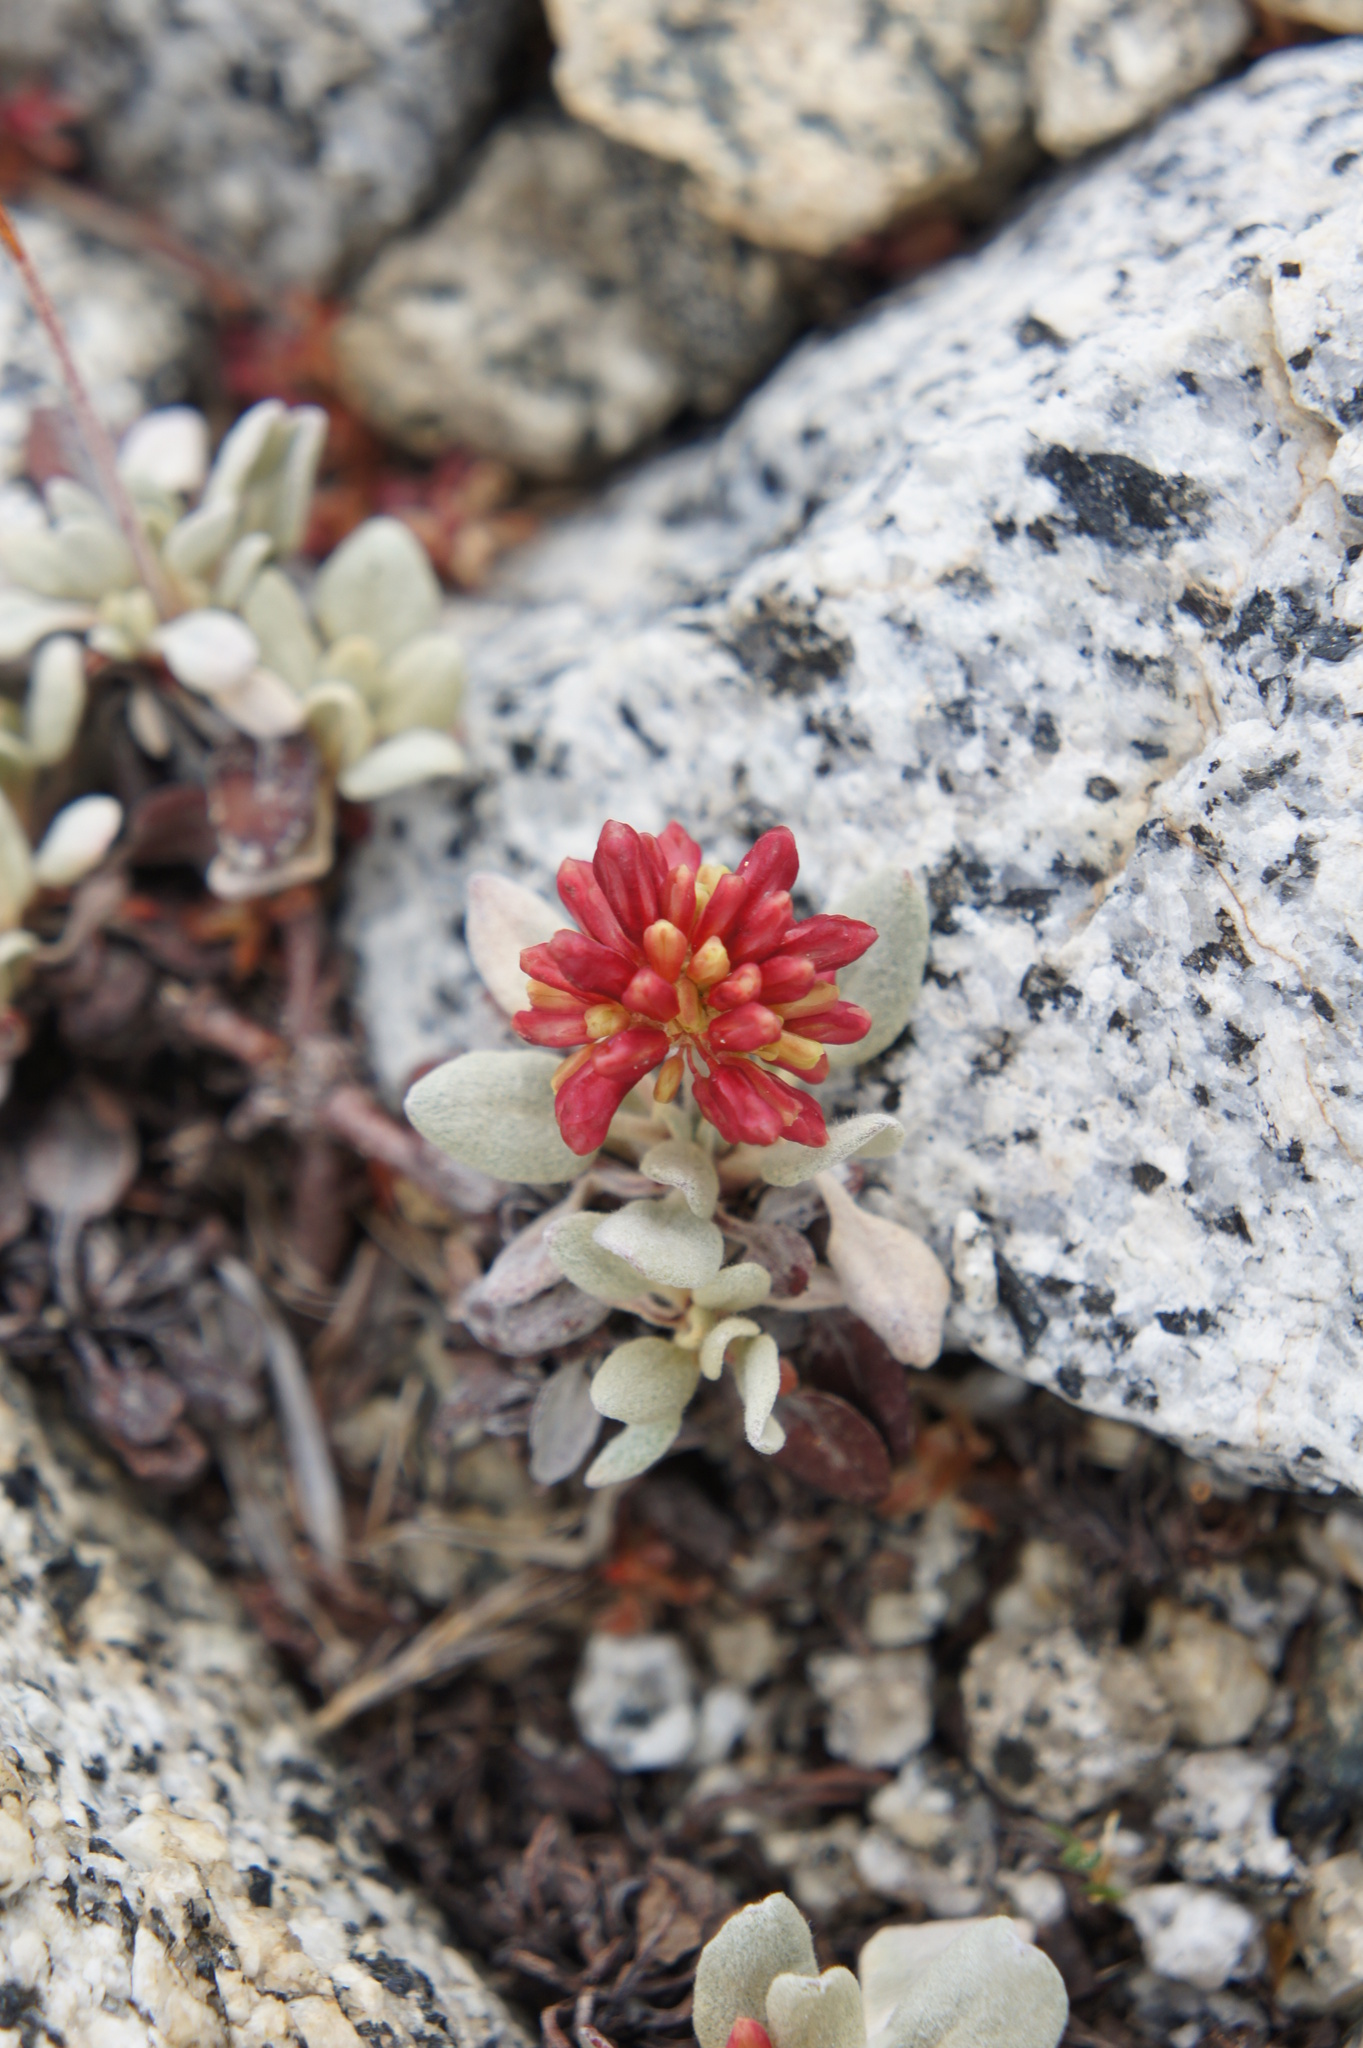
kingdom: Plantae
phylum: Tracheophyta
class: Magnoliopsida
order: Caryophyllales
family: Polygonaceae
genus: Eriogonum
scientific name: Eriogonum incanum
